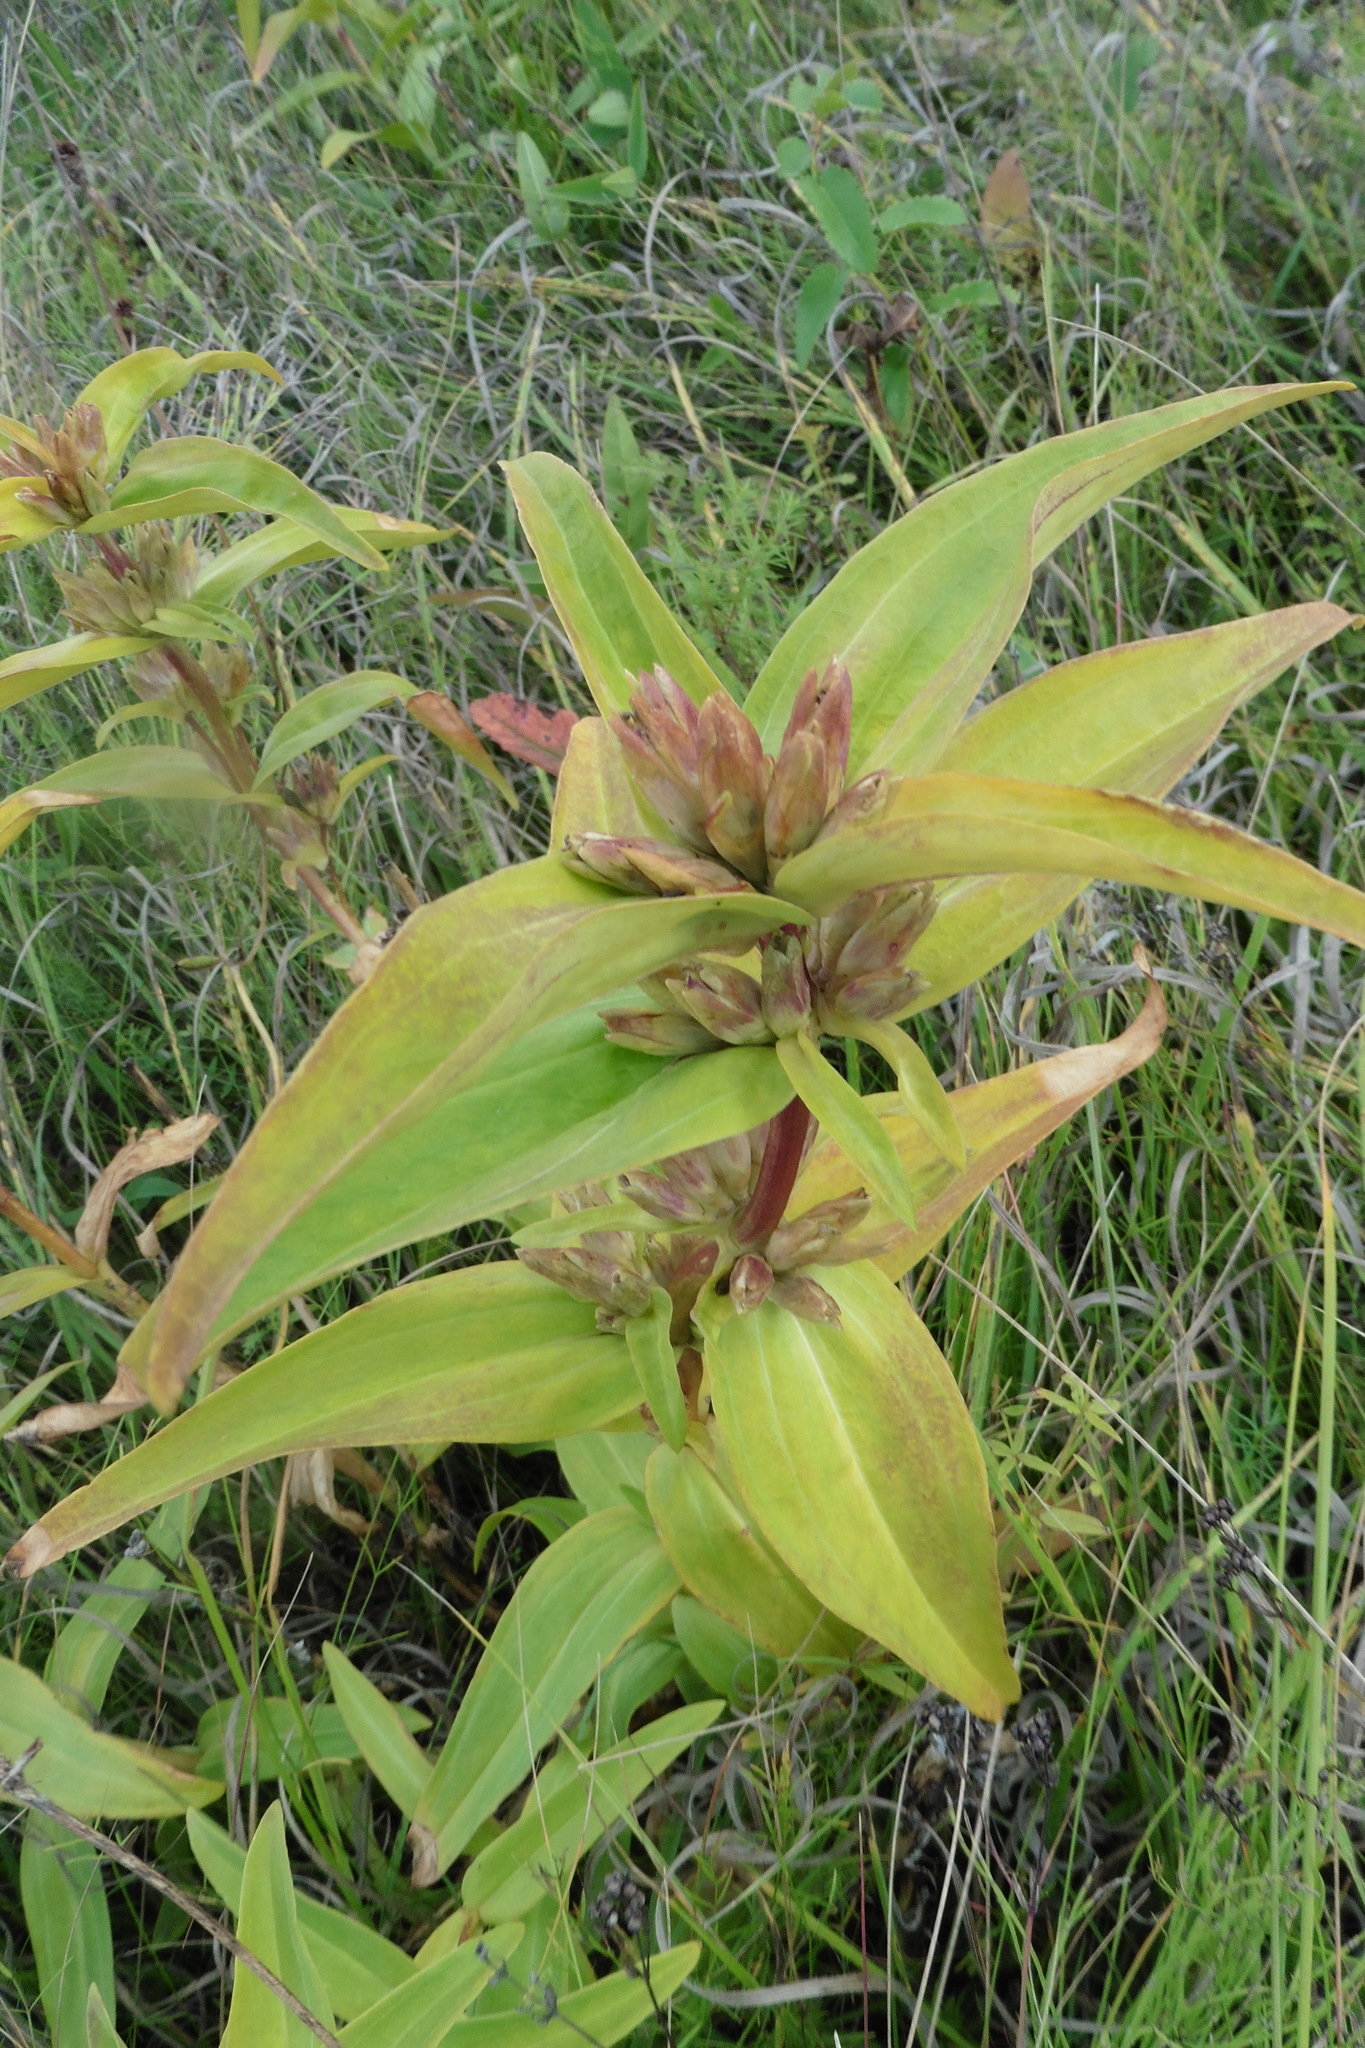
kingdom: Plantae
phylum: Tracheophyta
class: Magnoliopsida
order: Gentianales
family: Gentianaceae
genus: Gentiana
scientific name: Gentiana cruciata
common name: Cross gentian
